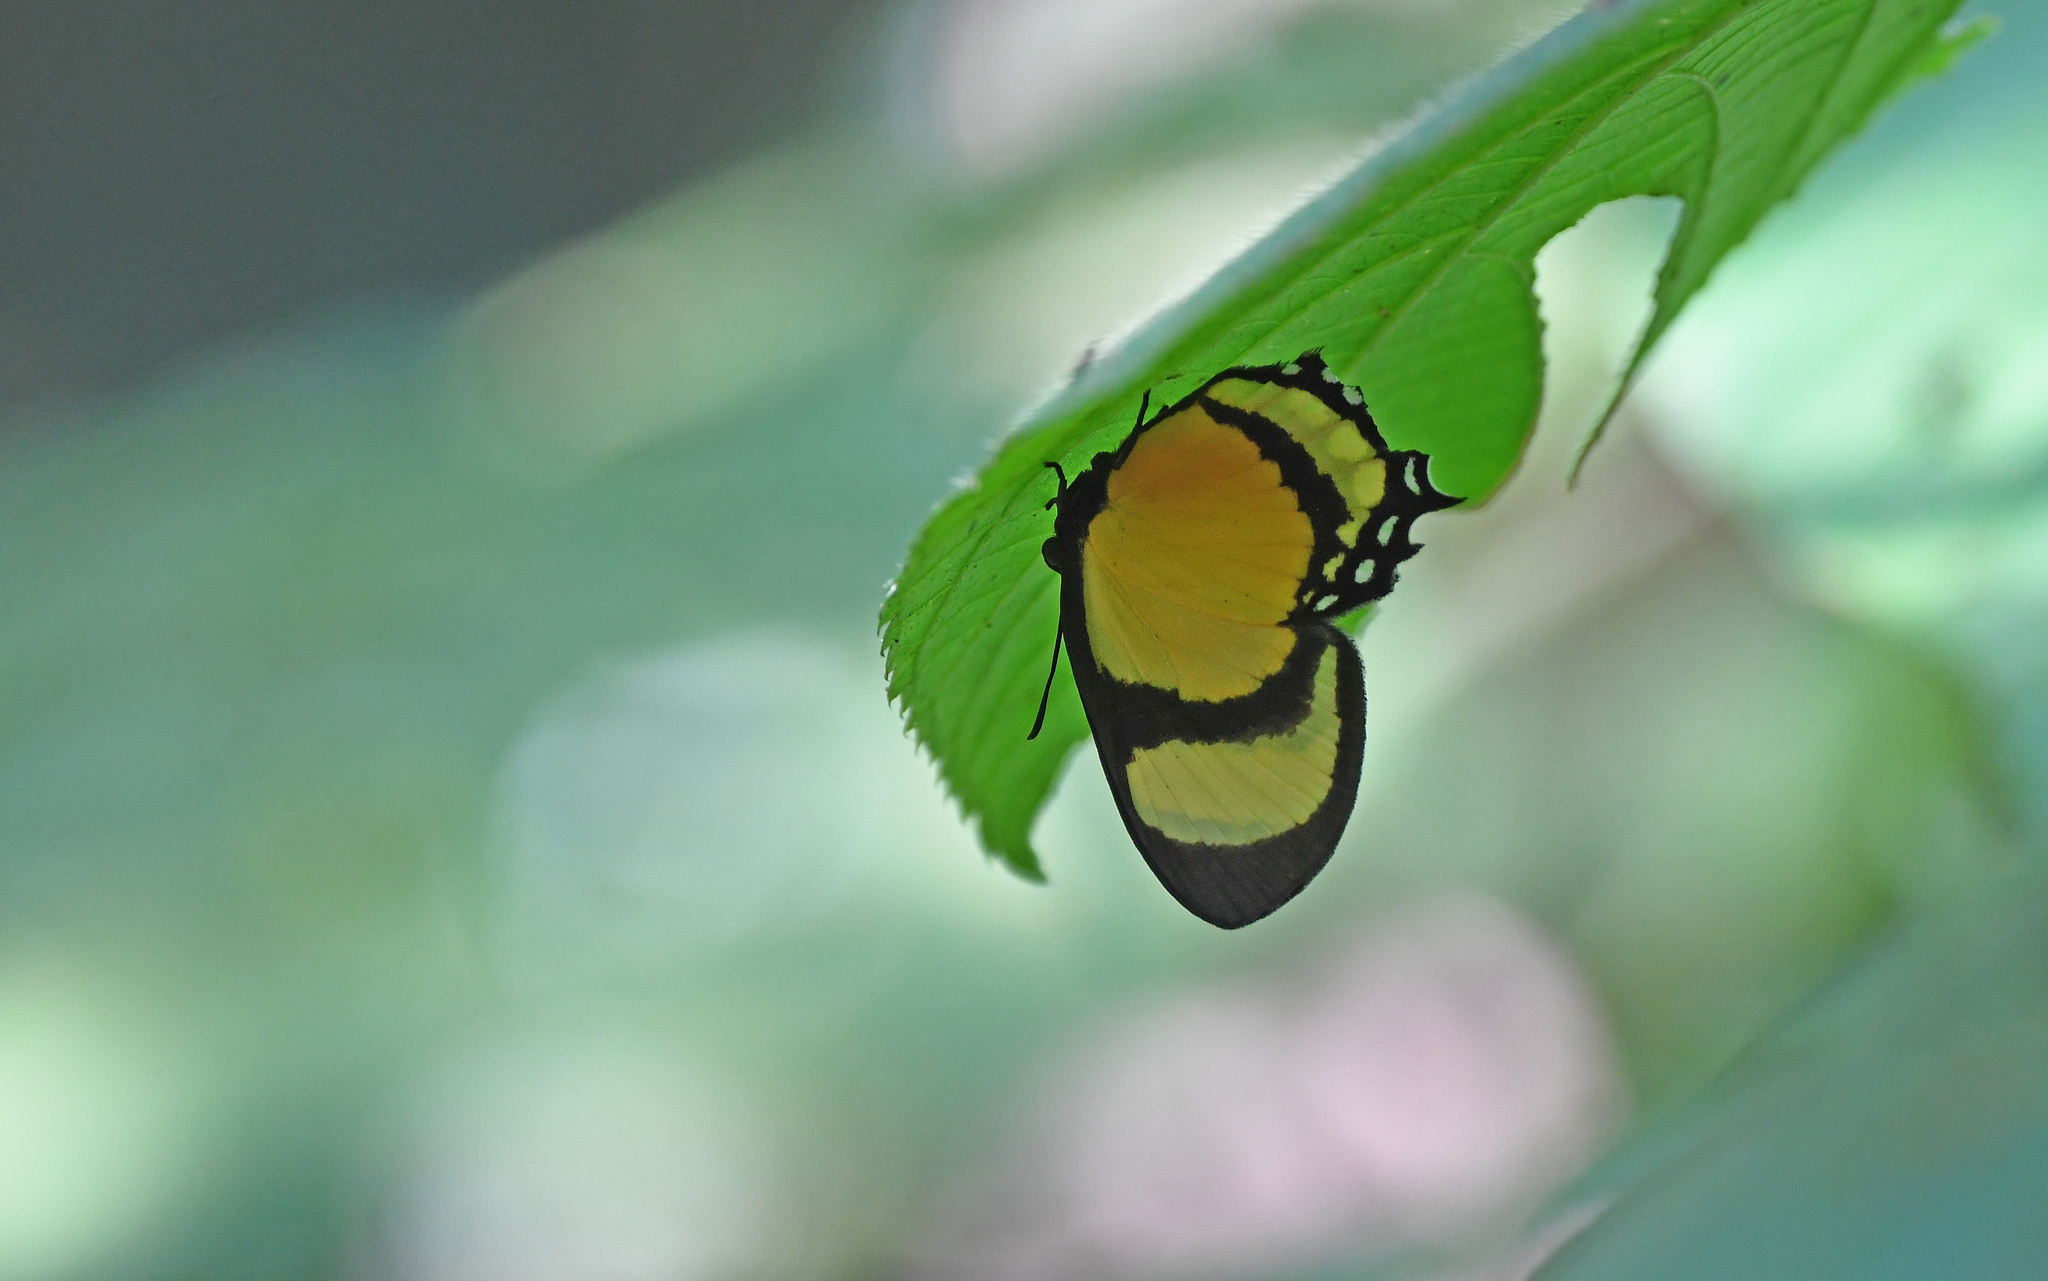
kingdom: Animalia
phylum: Arthropoda
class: Insecta
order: Lepidoptera
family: Riodinidae
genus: Methone
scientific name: Methone cecilia
